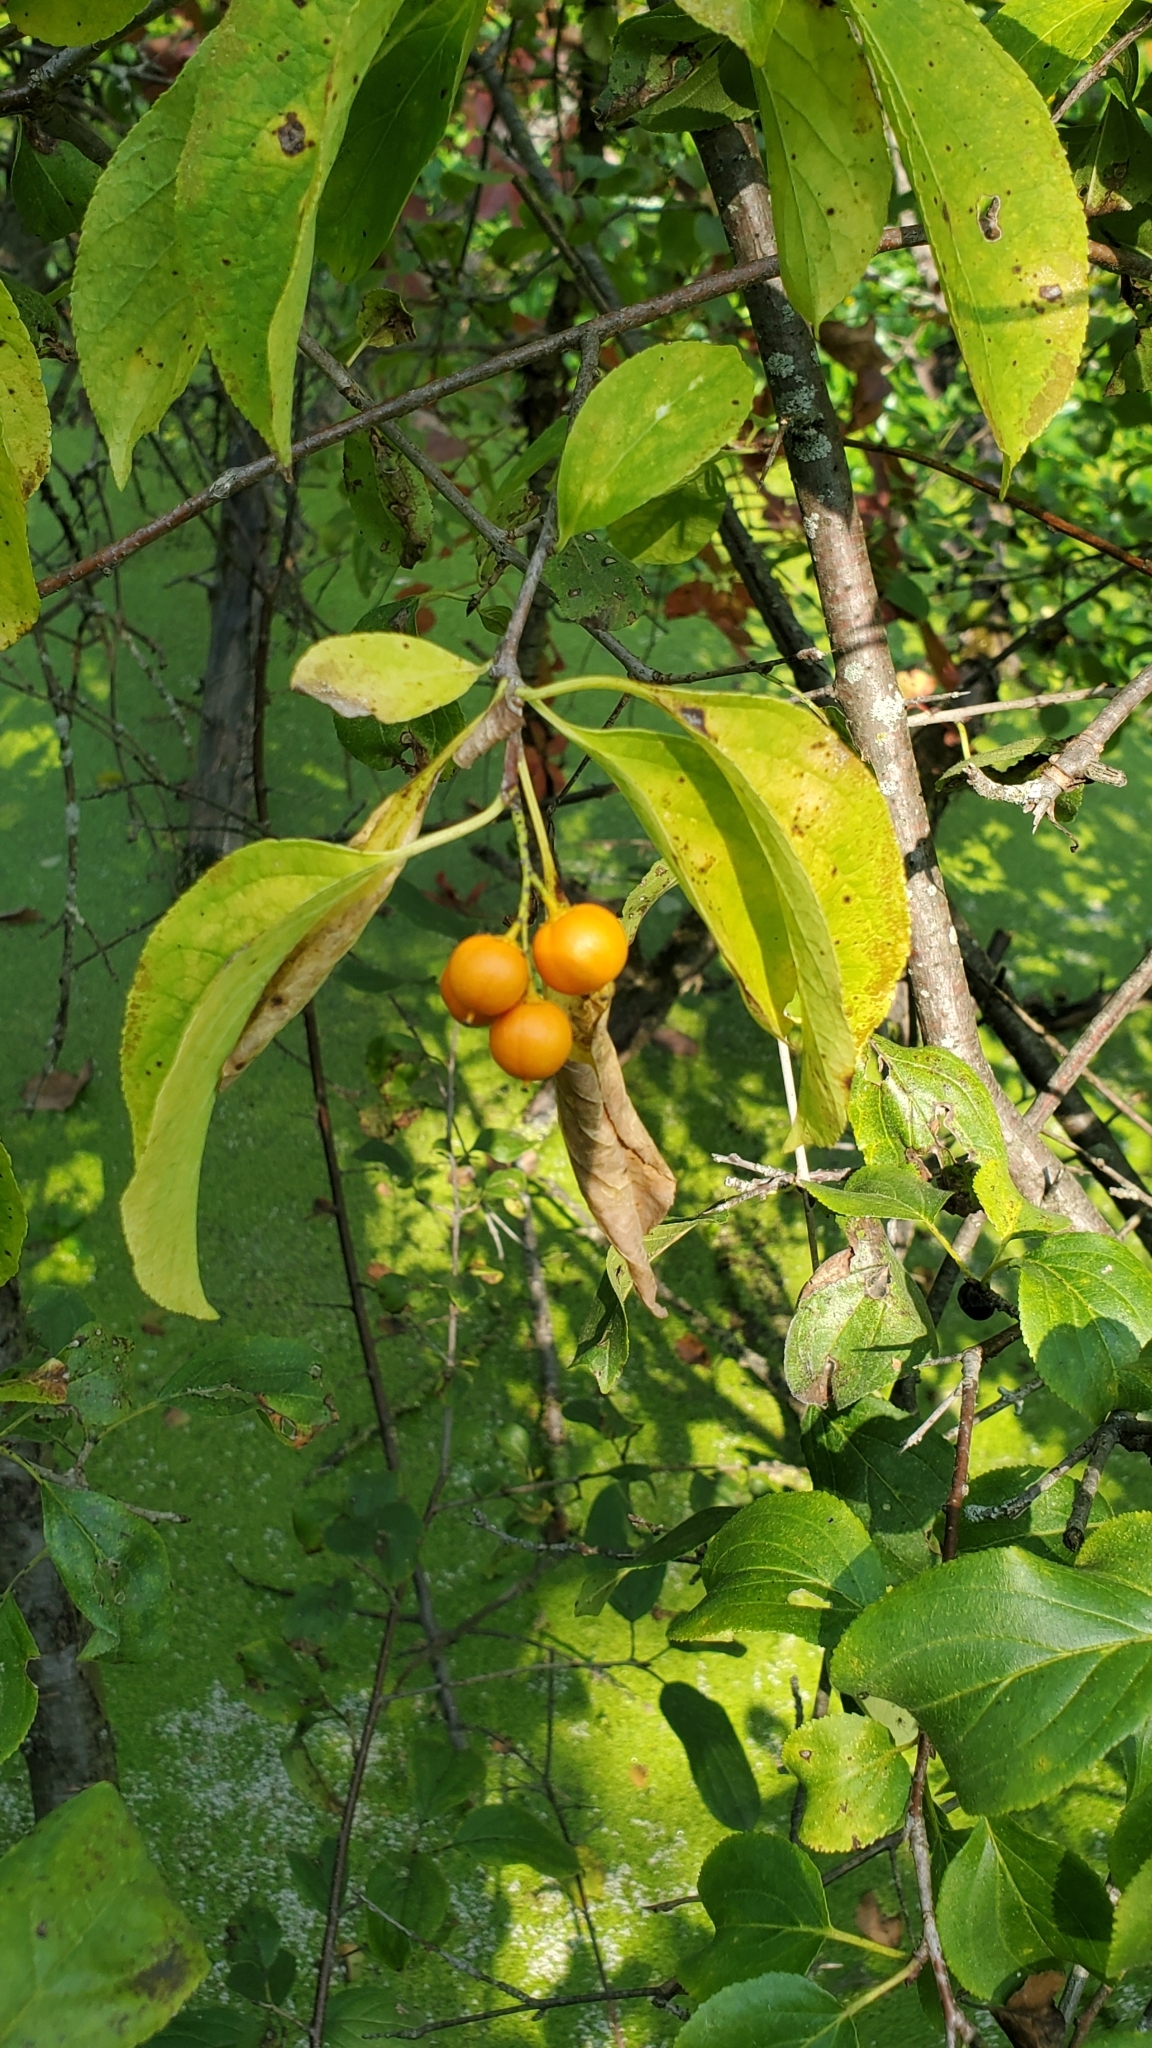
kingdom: Plantae
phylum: Tracheophyta
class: Magnoliopsida
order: Celastrales
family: Celastraceae
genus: Celastrus
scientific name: Celastrus scandens
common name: American bittersweet
